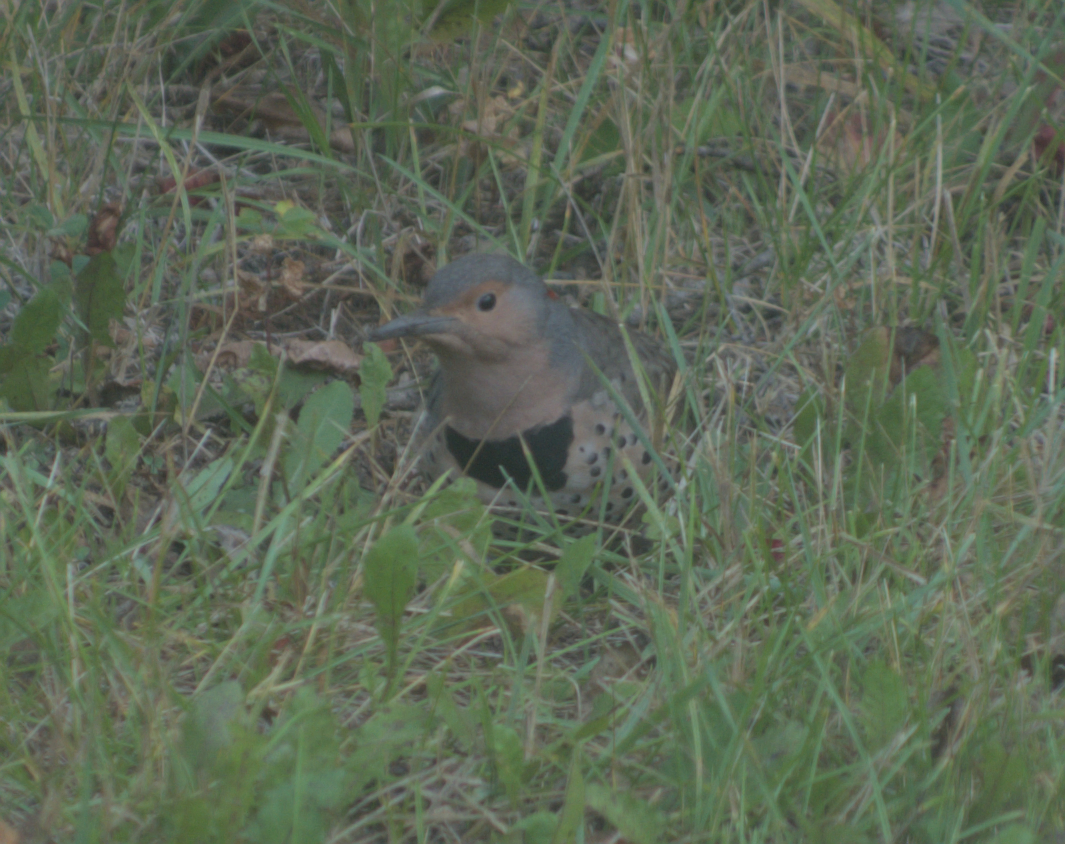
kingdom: Animalia
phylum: Chordata
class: Aves
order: Piciformes
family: Picidae
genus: Colaptes
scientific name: Colaptes auratus
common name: Northern flicker
